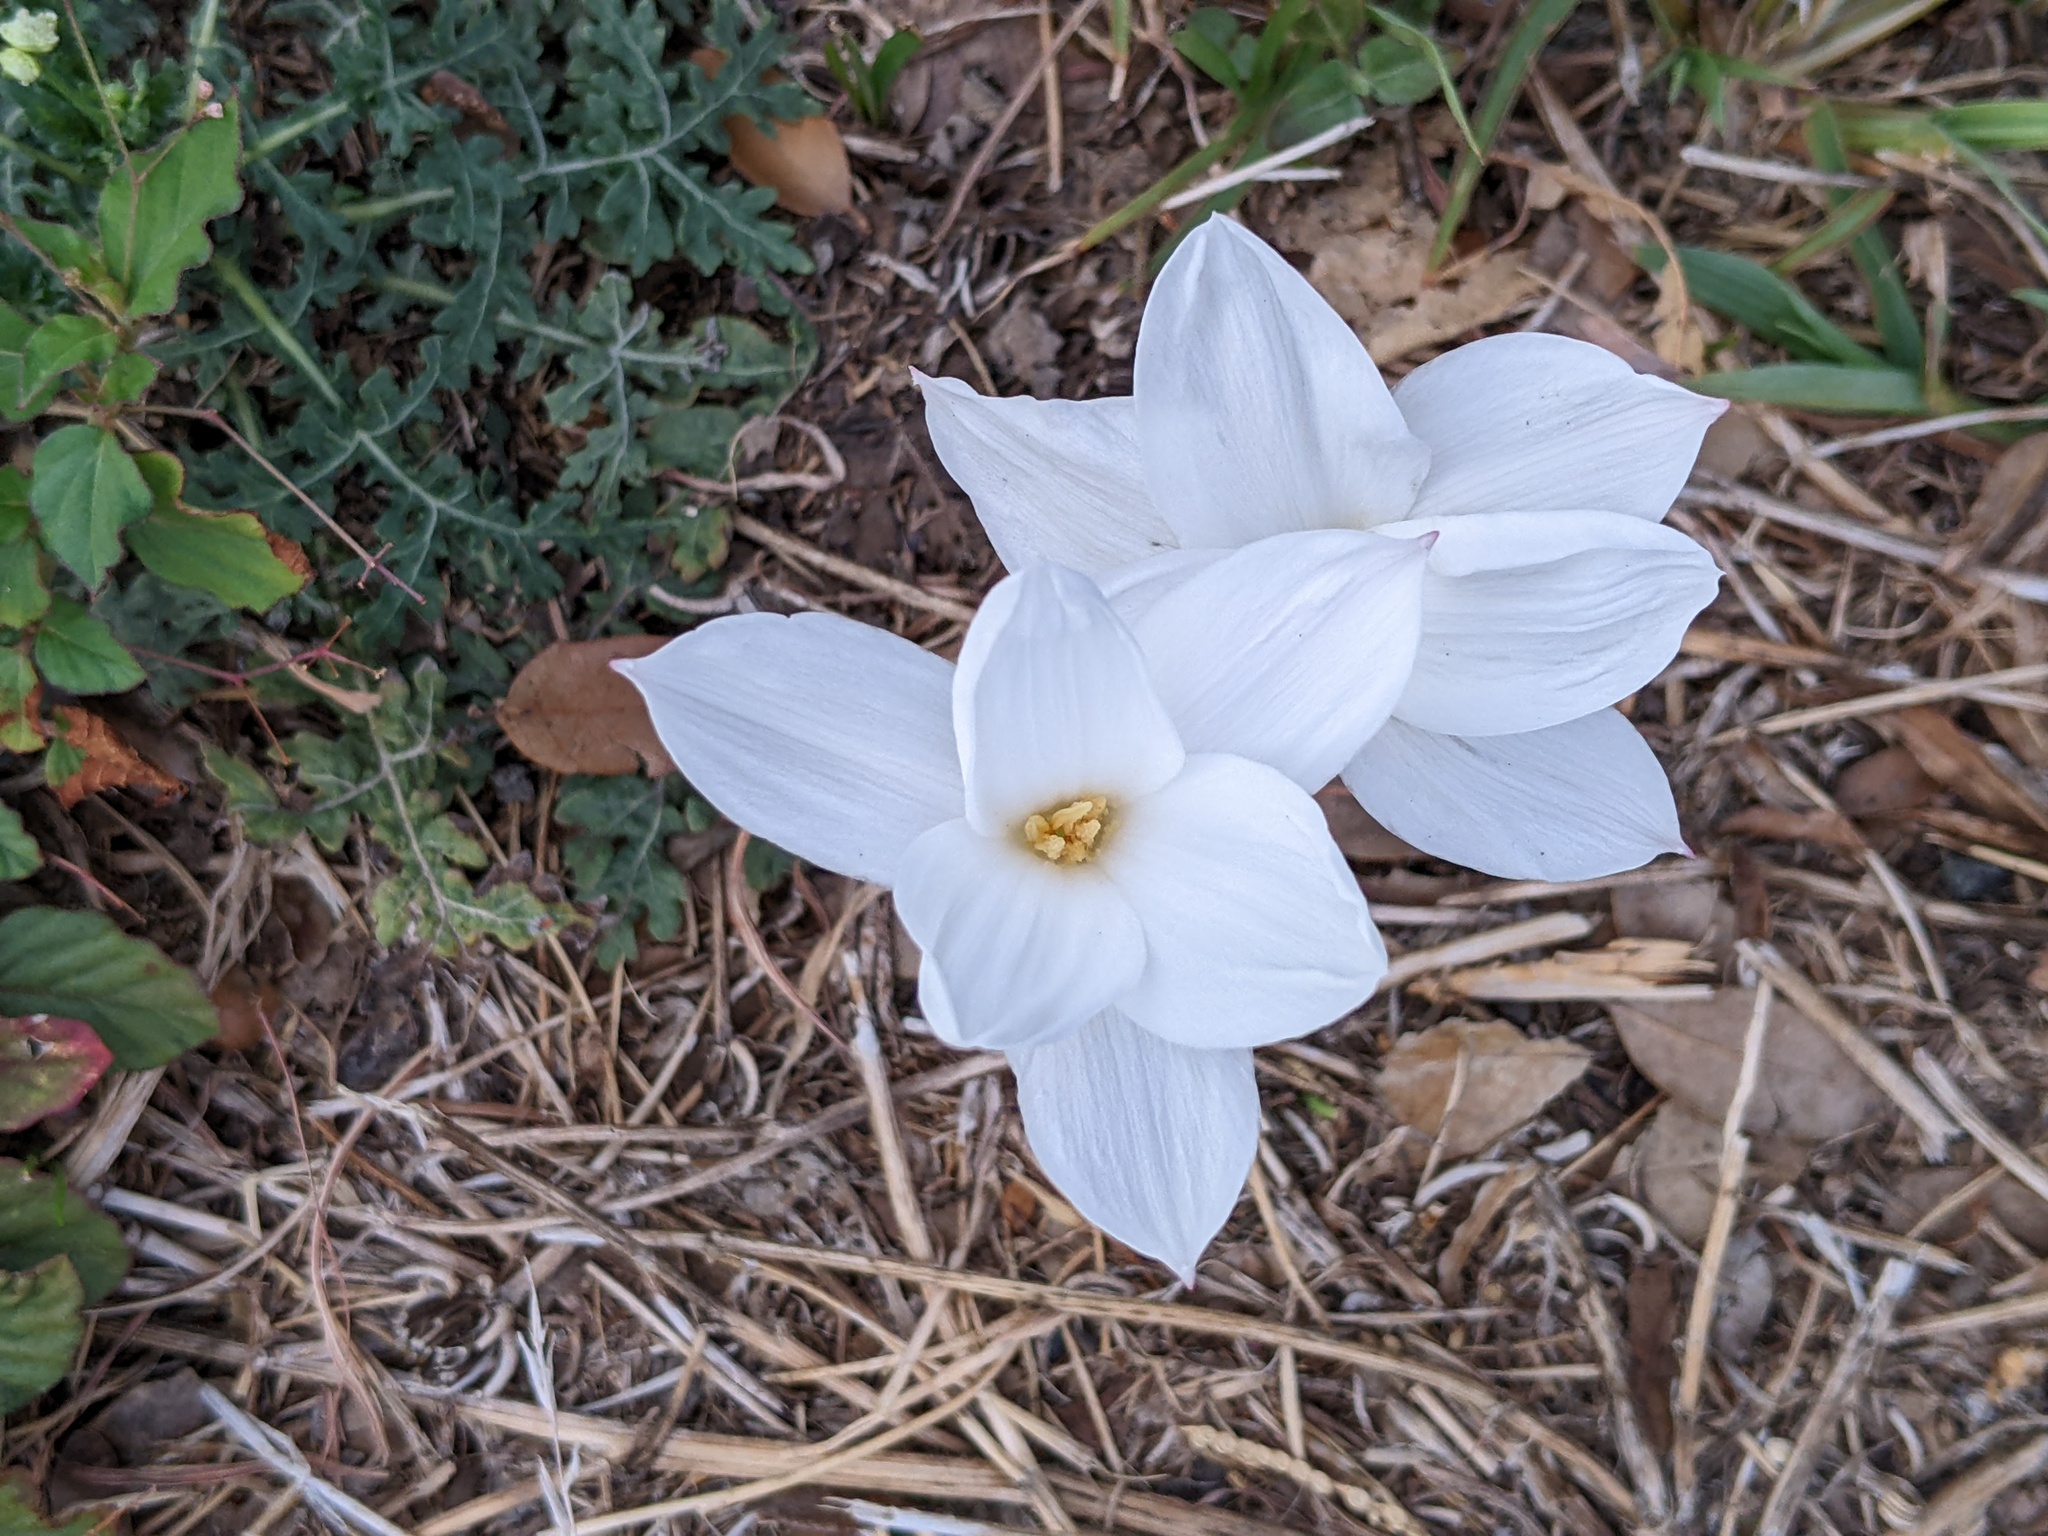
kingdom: Plantae
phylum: Tracheophyta
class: Liliopsida
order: Asparagales
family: Amaryllidaceae
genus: Zephyranthes
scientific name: Zephyranthes drummondii
